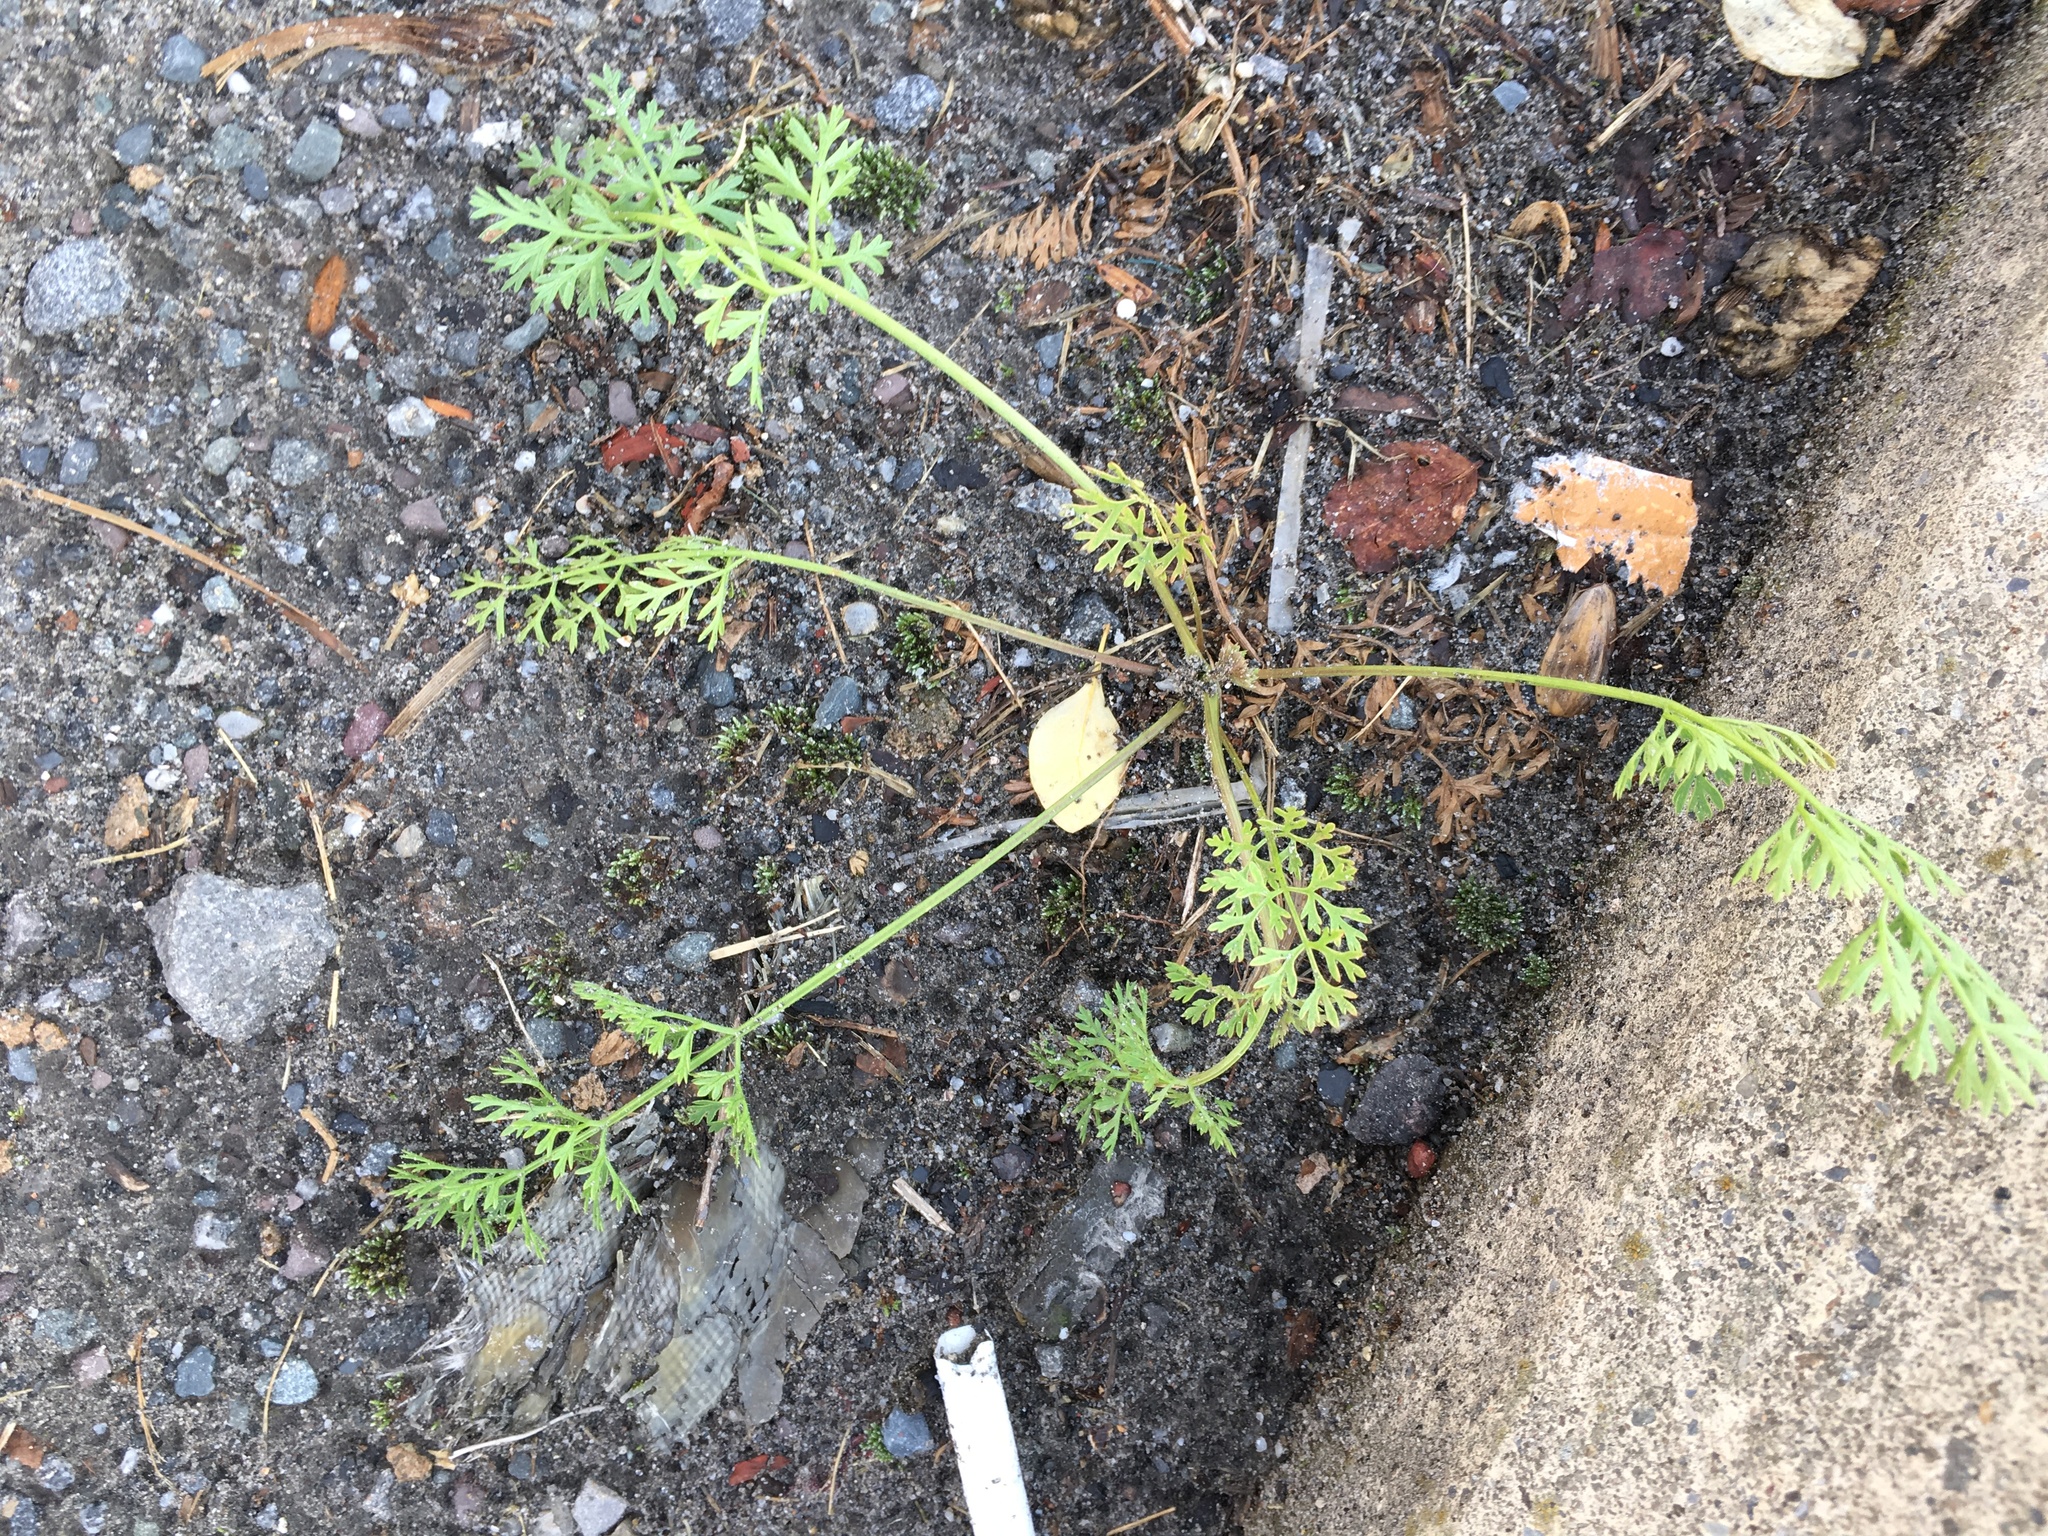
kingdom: Plantae
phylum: Tracheophyta
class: Magnoliopsida
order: Apiales
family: Apiaceae
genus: Daucus
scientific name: Daucus carota
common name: Wild carrot
